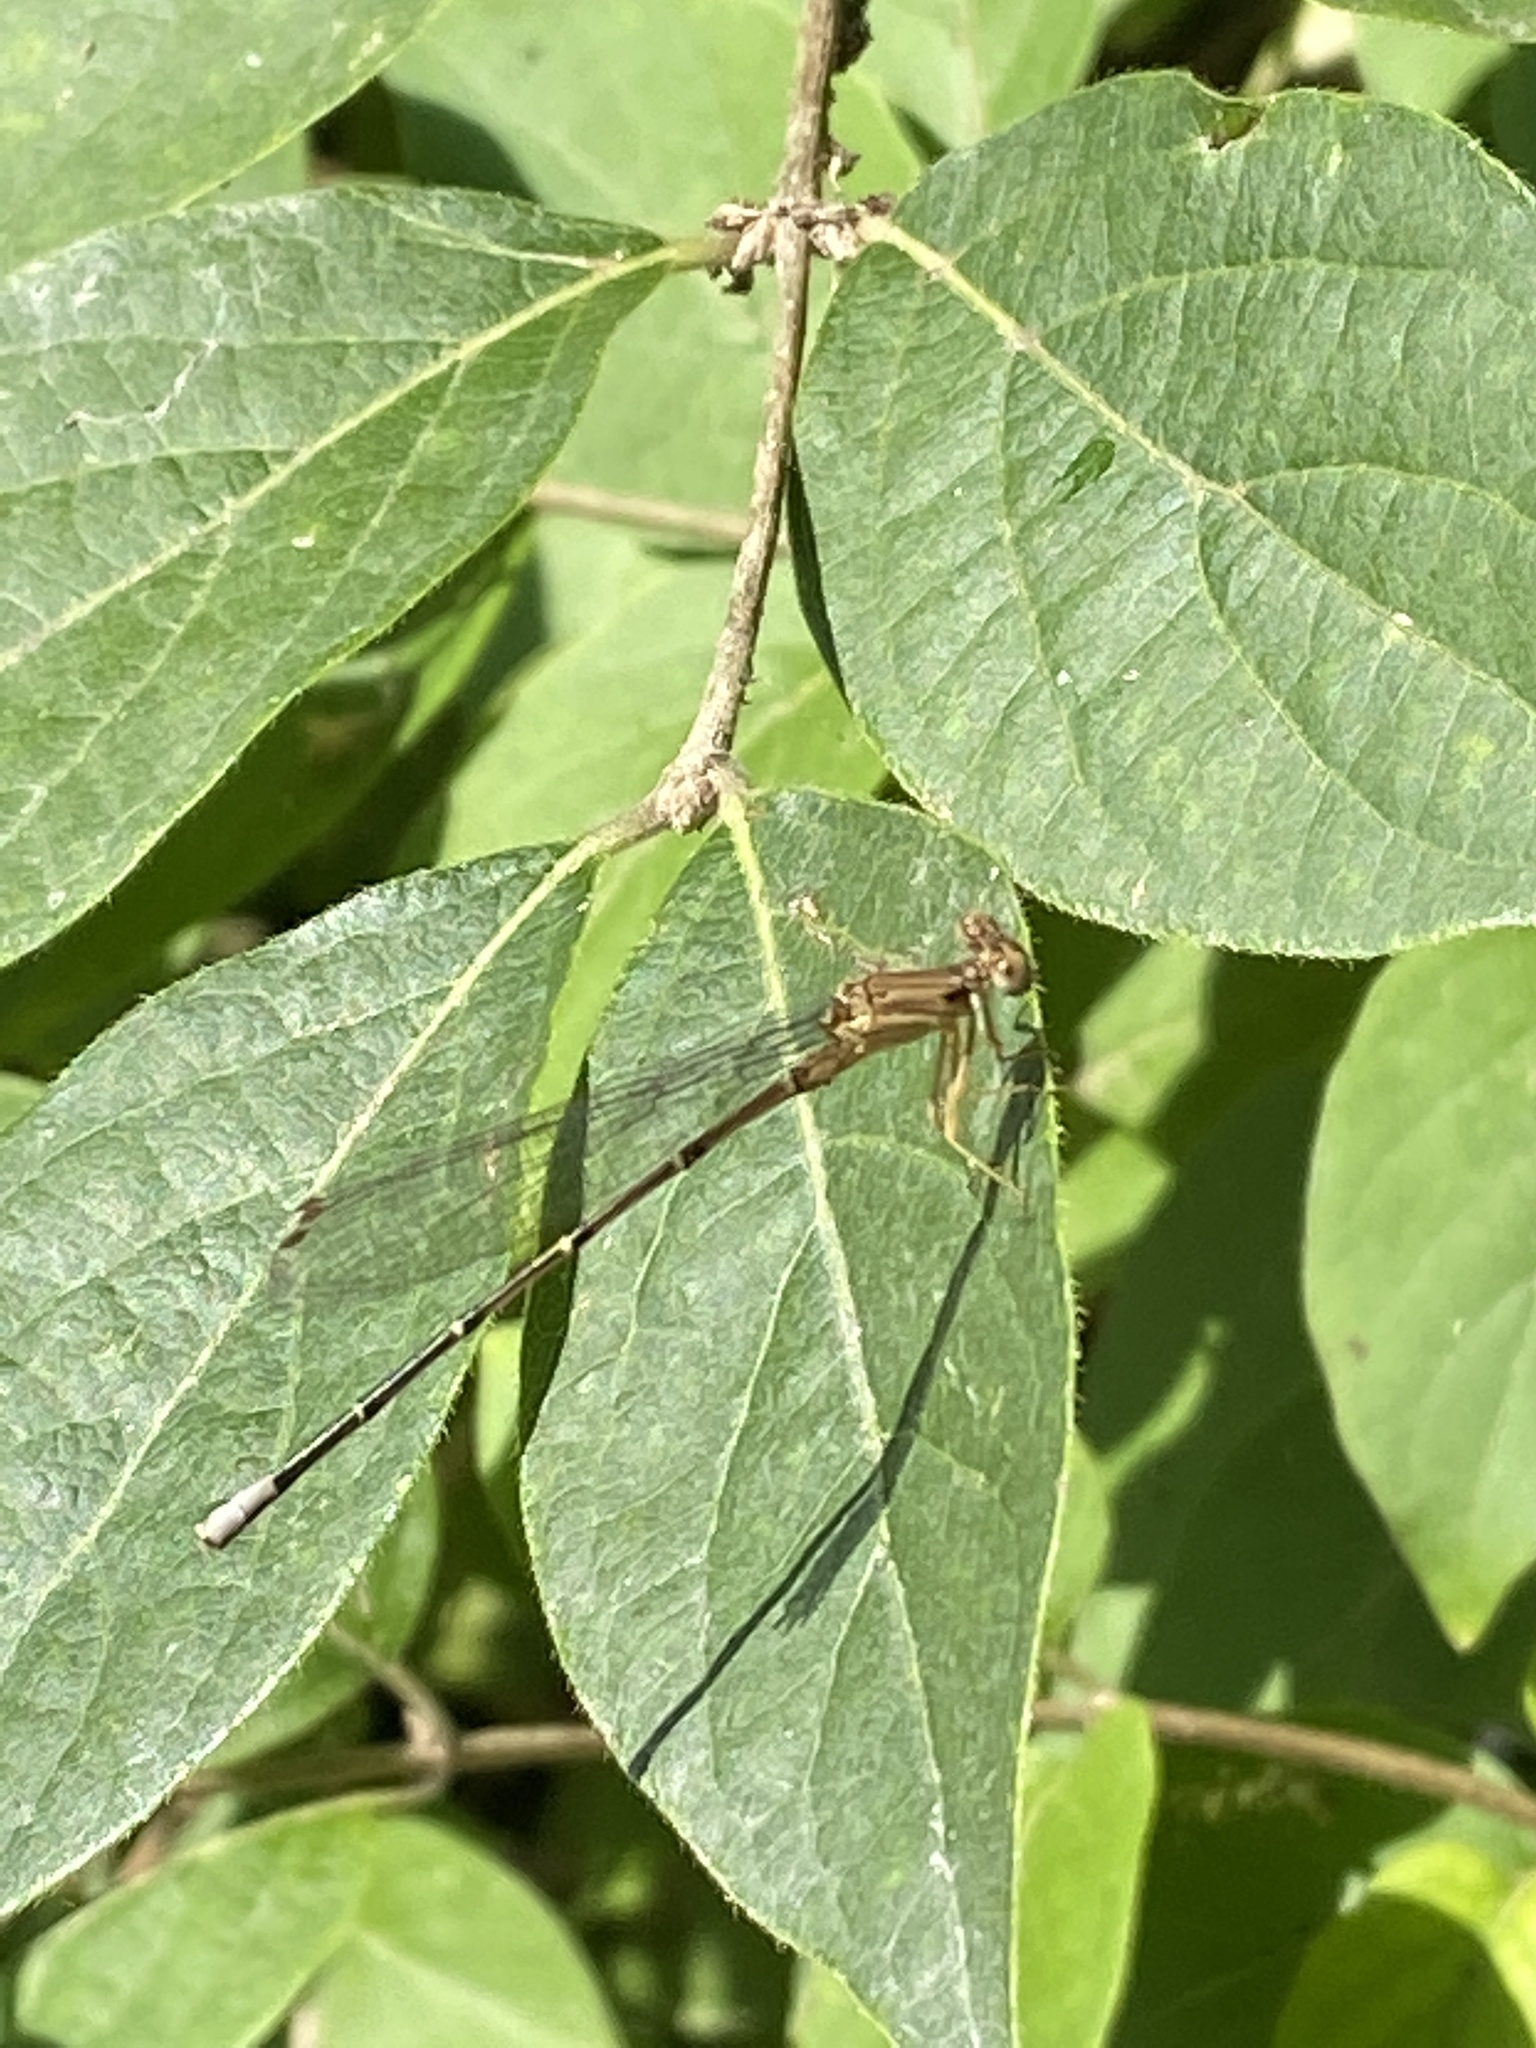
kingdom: Animalia
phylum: Arthropoda
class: Insecta
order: Odonata
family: Coenagrionidae
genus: Argia
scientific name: Argia apicalis
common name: Blue-fronted dancer
